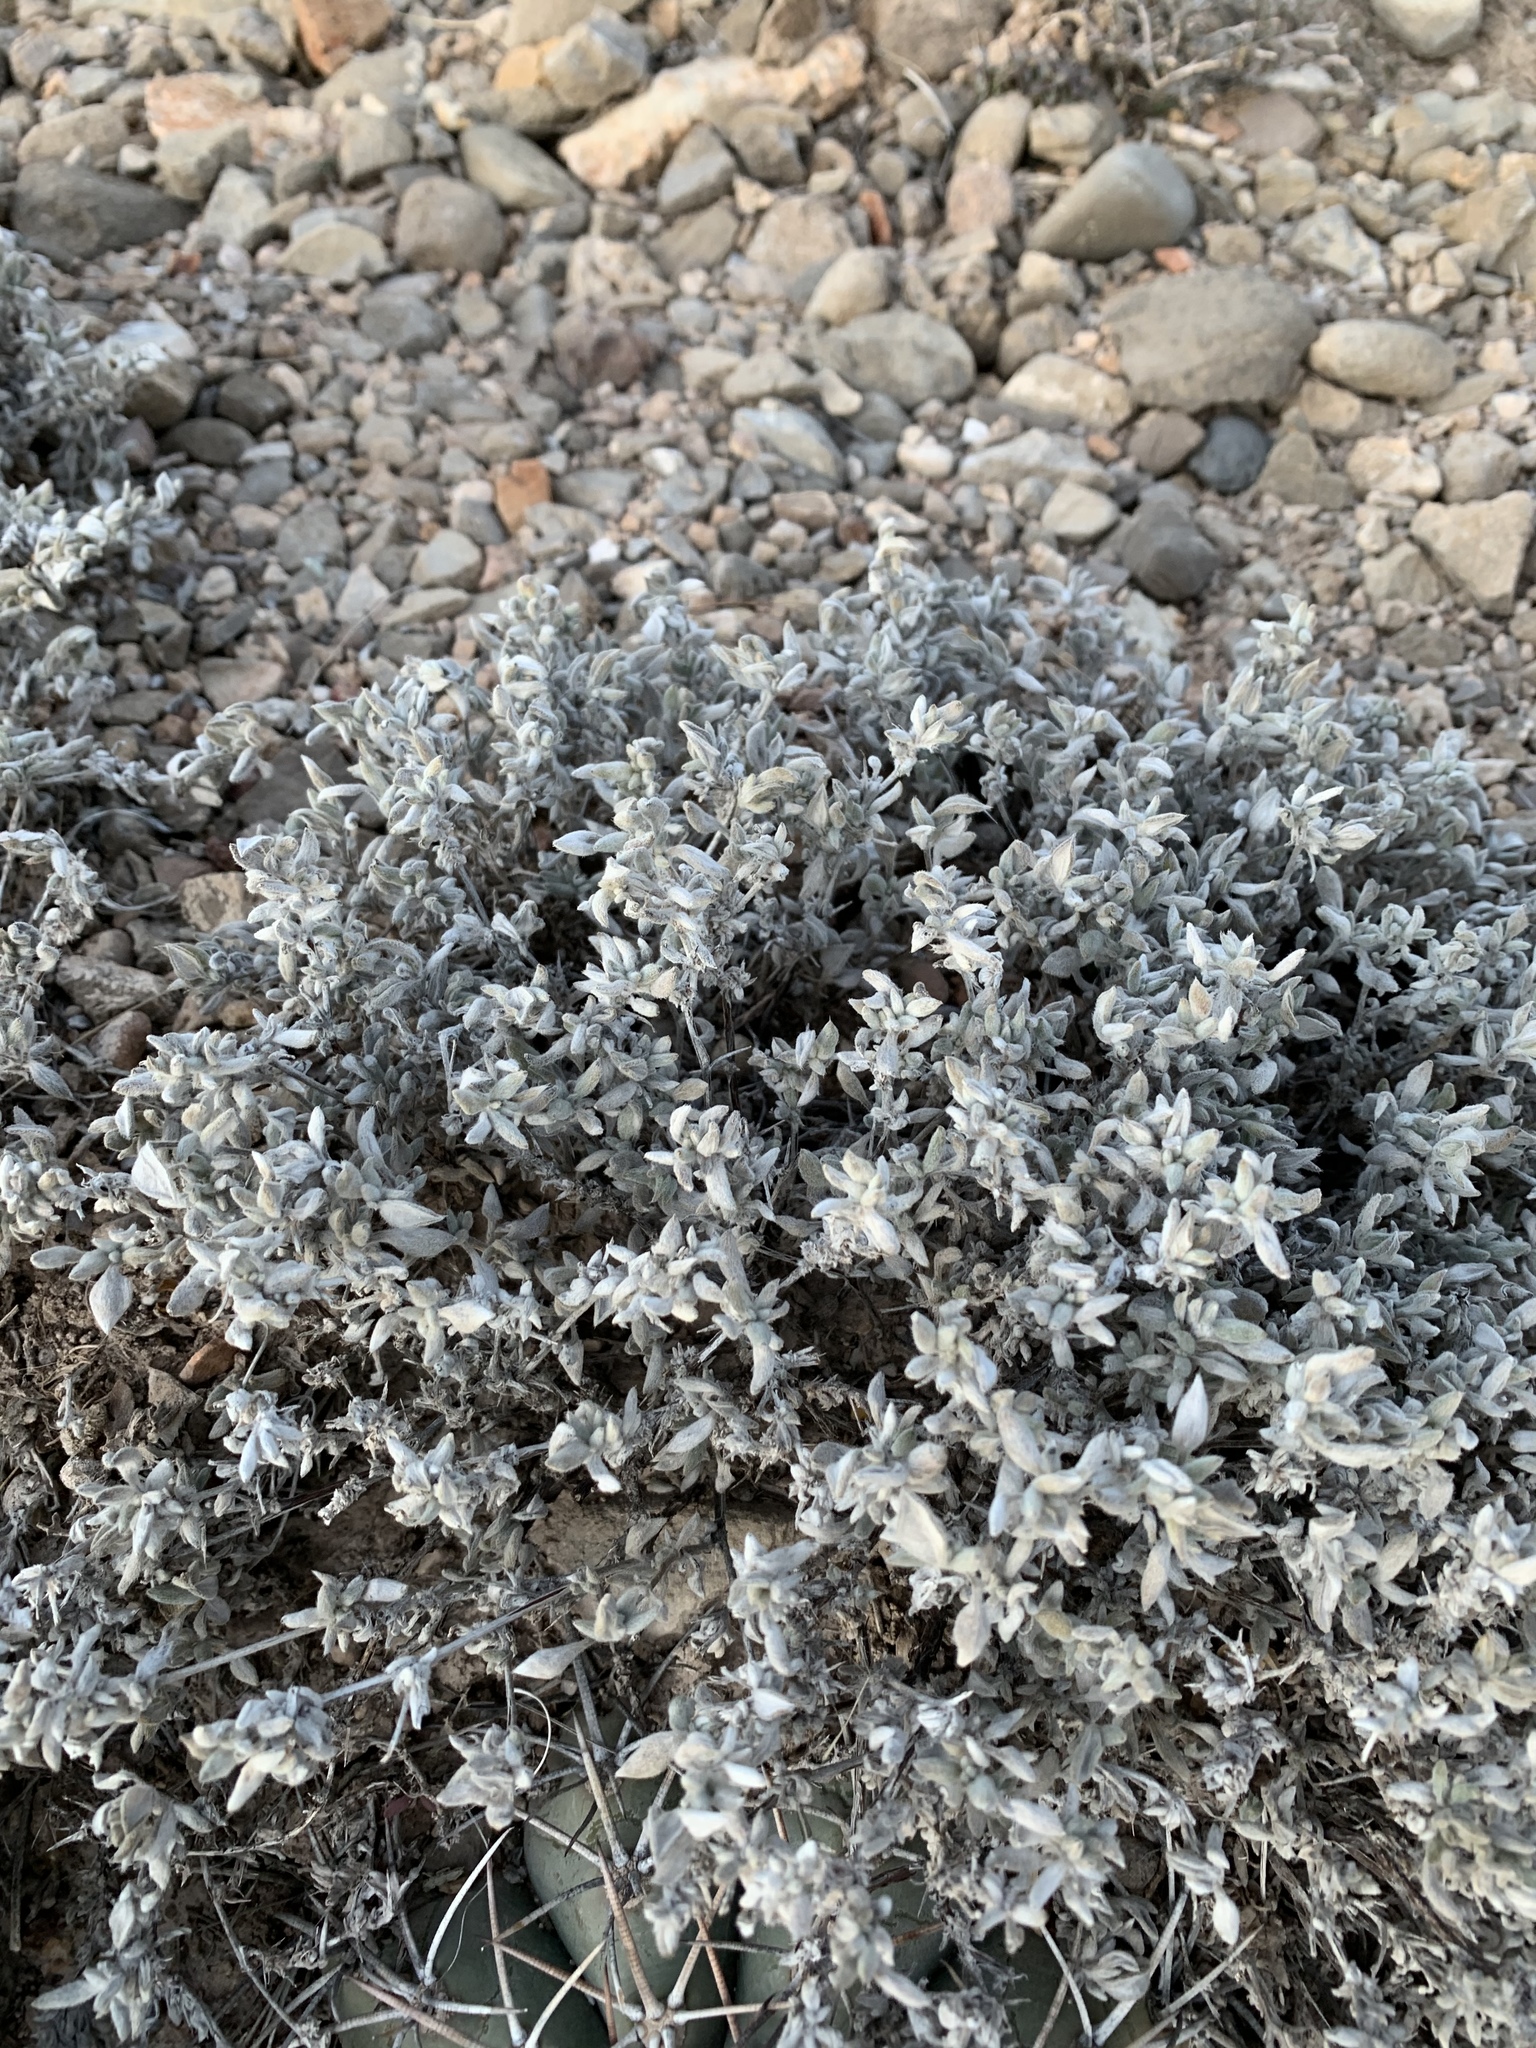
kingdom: Plantae
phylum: Tracheophyta
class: Magnoliopsida
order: Boraginales
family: Ehretiaceae
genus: Tiquilia
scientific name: Tiquilia canescens
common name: Hairy tiquilia
